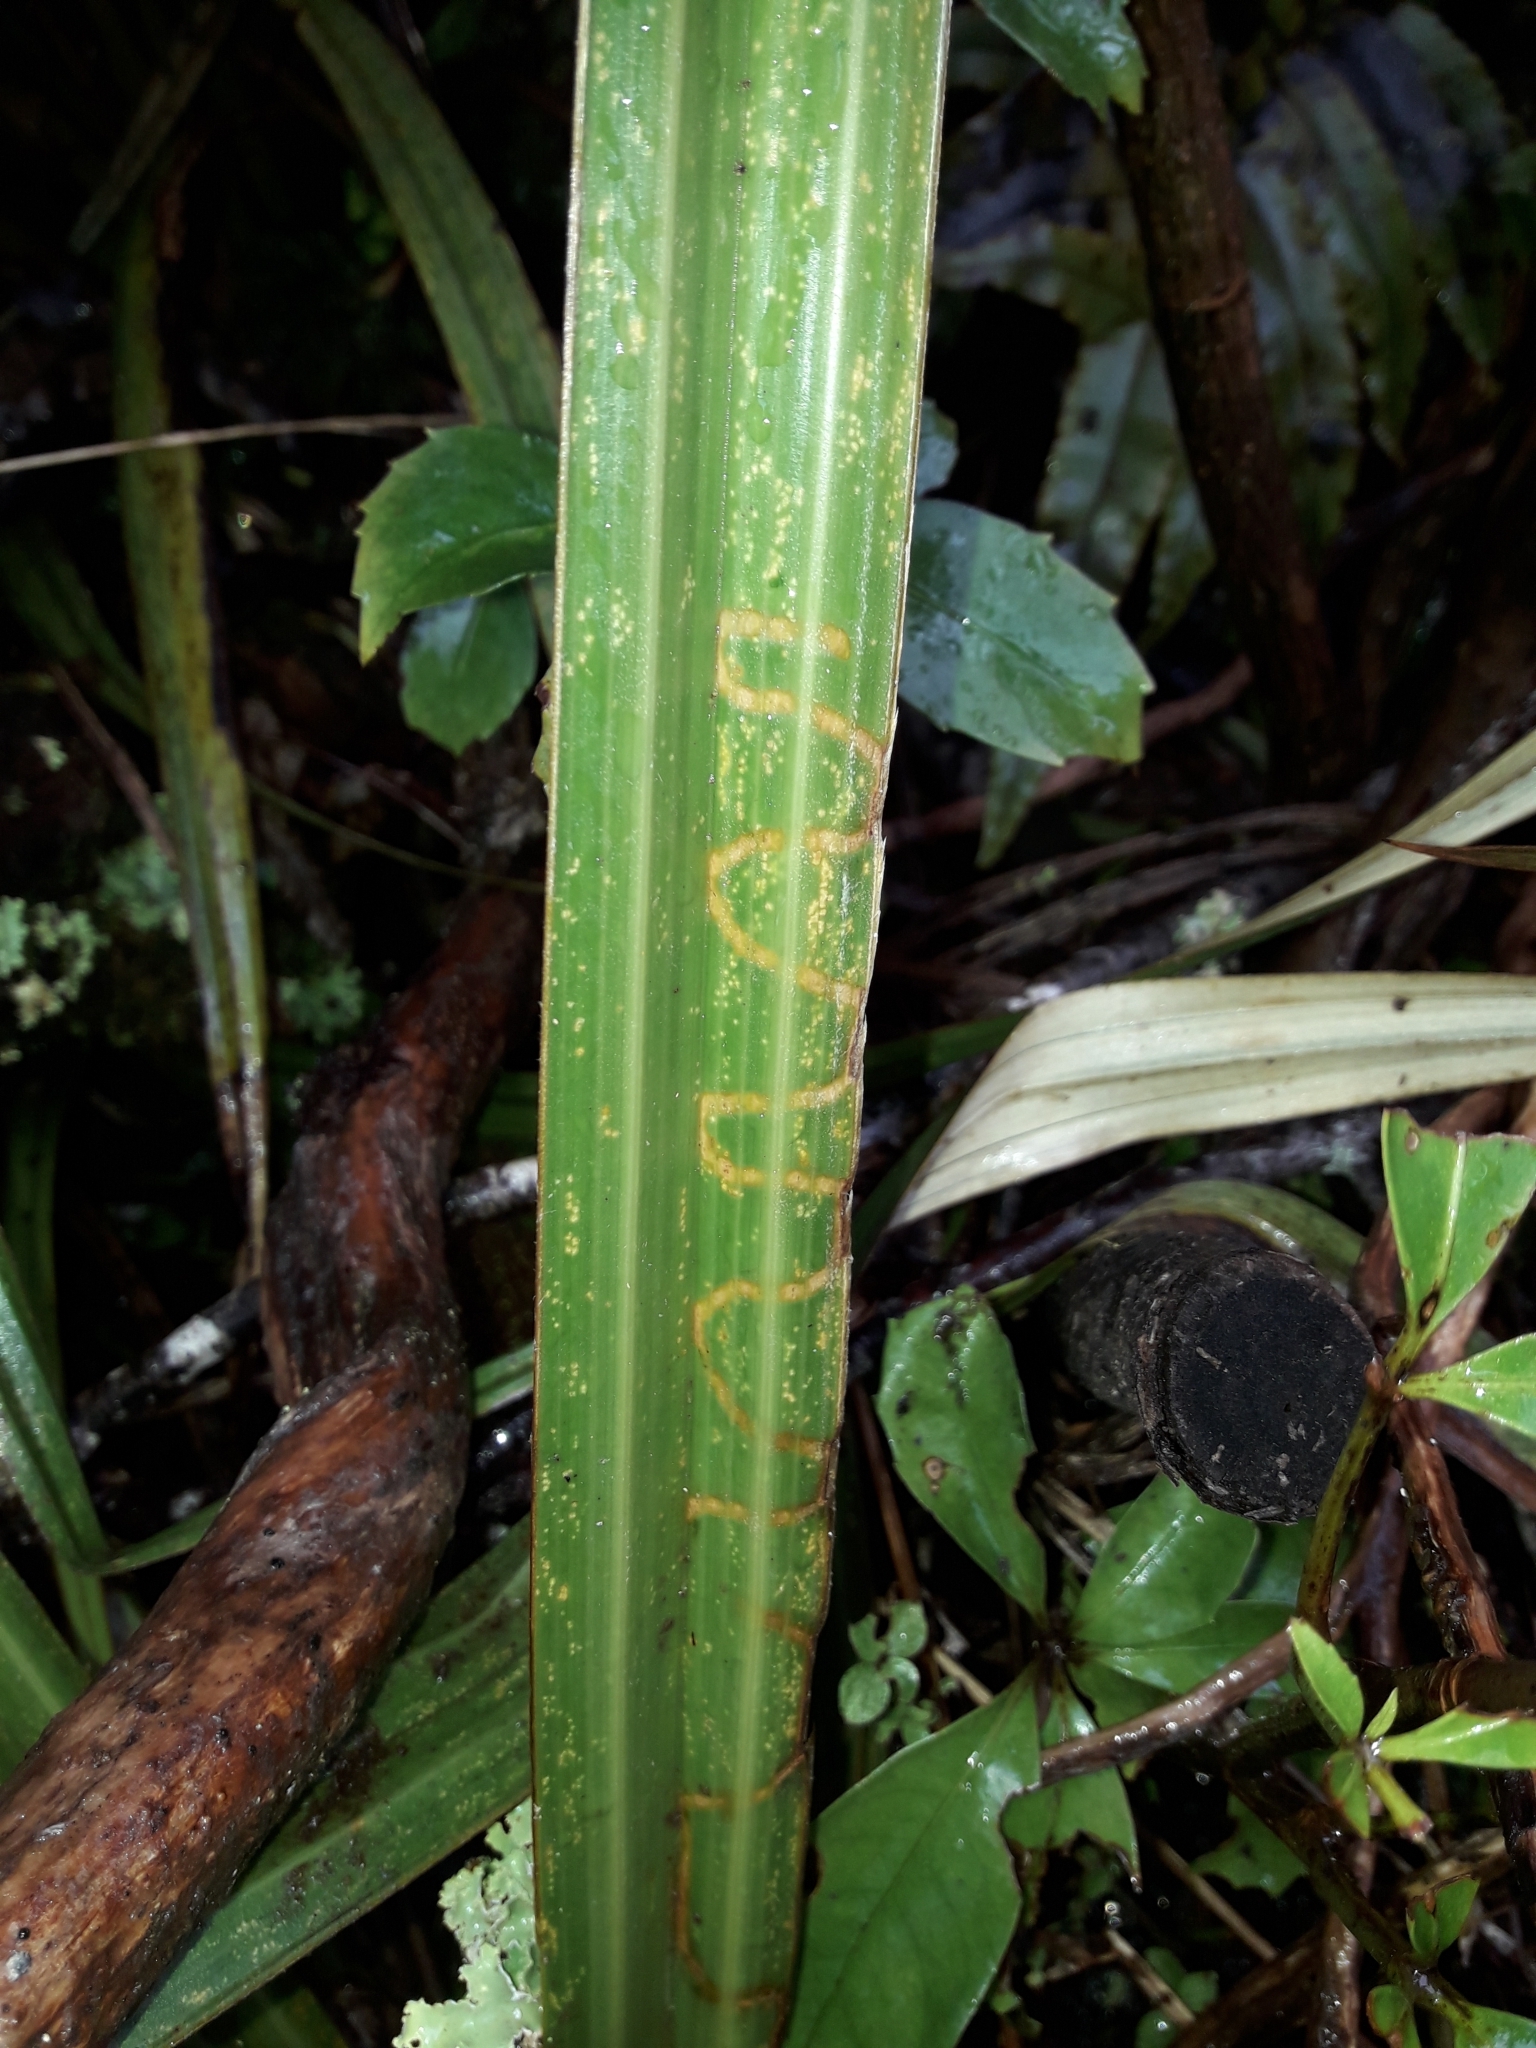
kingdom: Animalia
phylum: Arthropoda
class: Insecta
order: Lepidoptera
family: Plutellidae
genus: Charixena
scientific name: Charixena iridoxa
